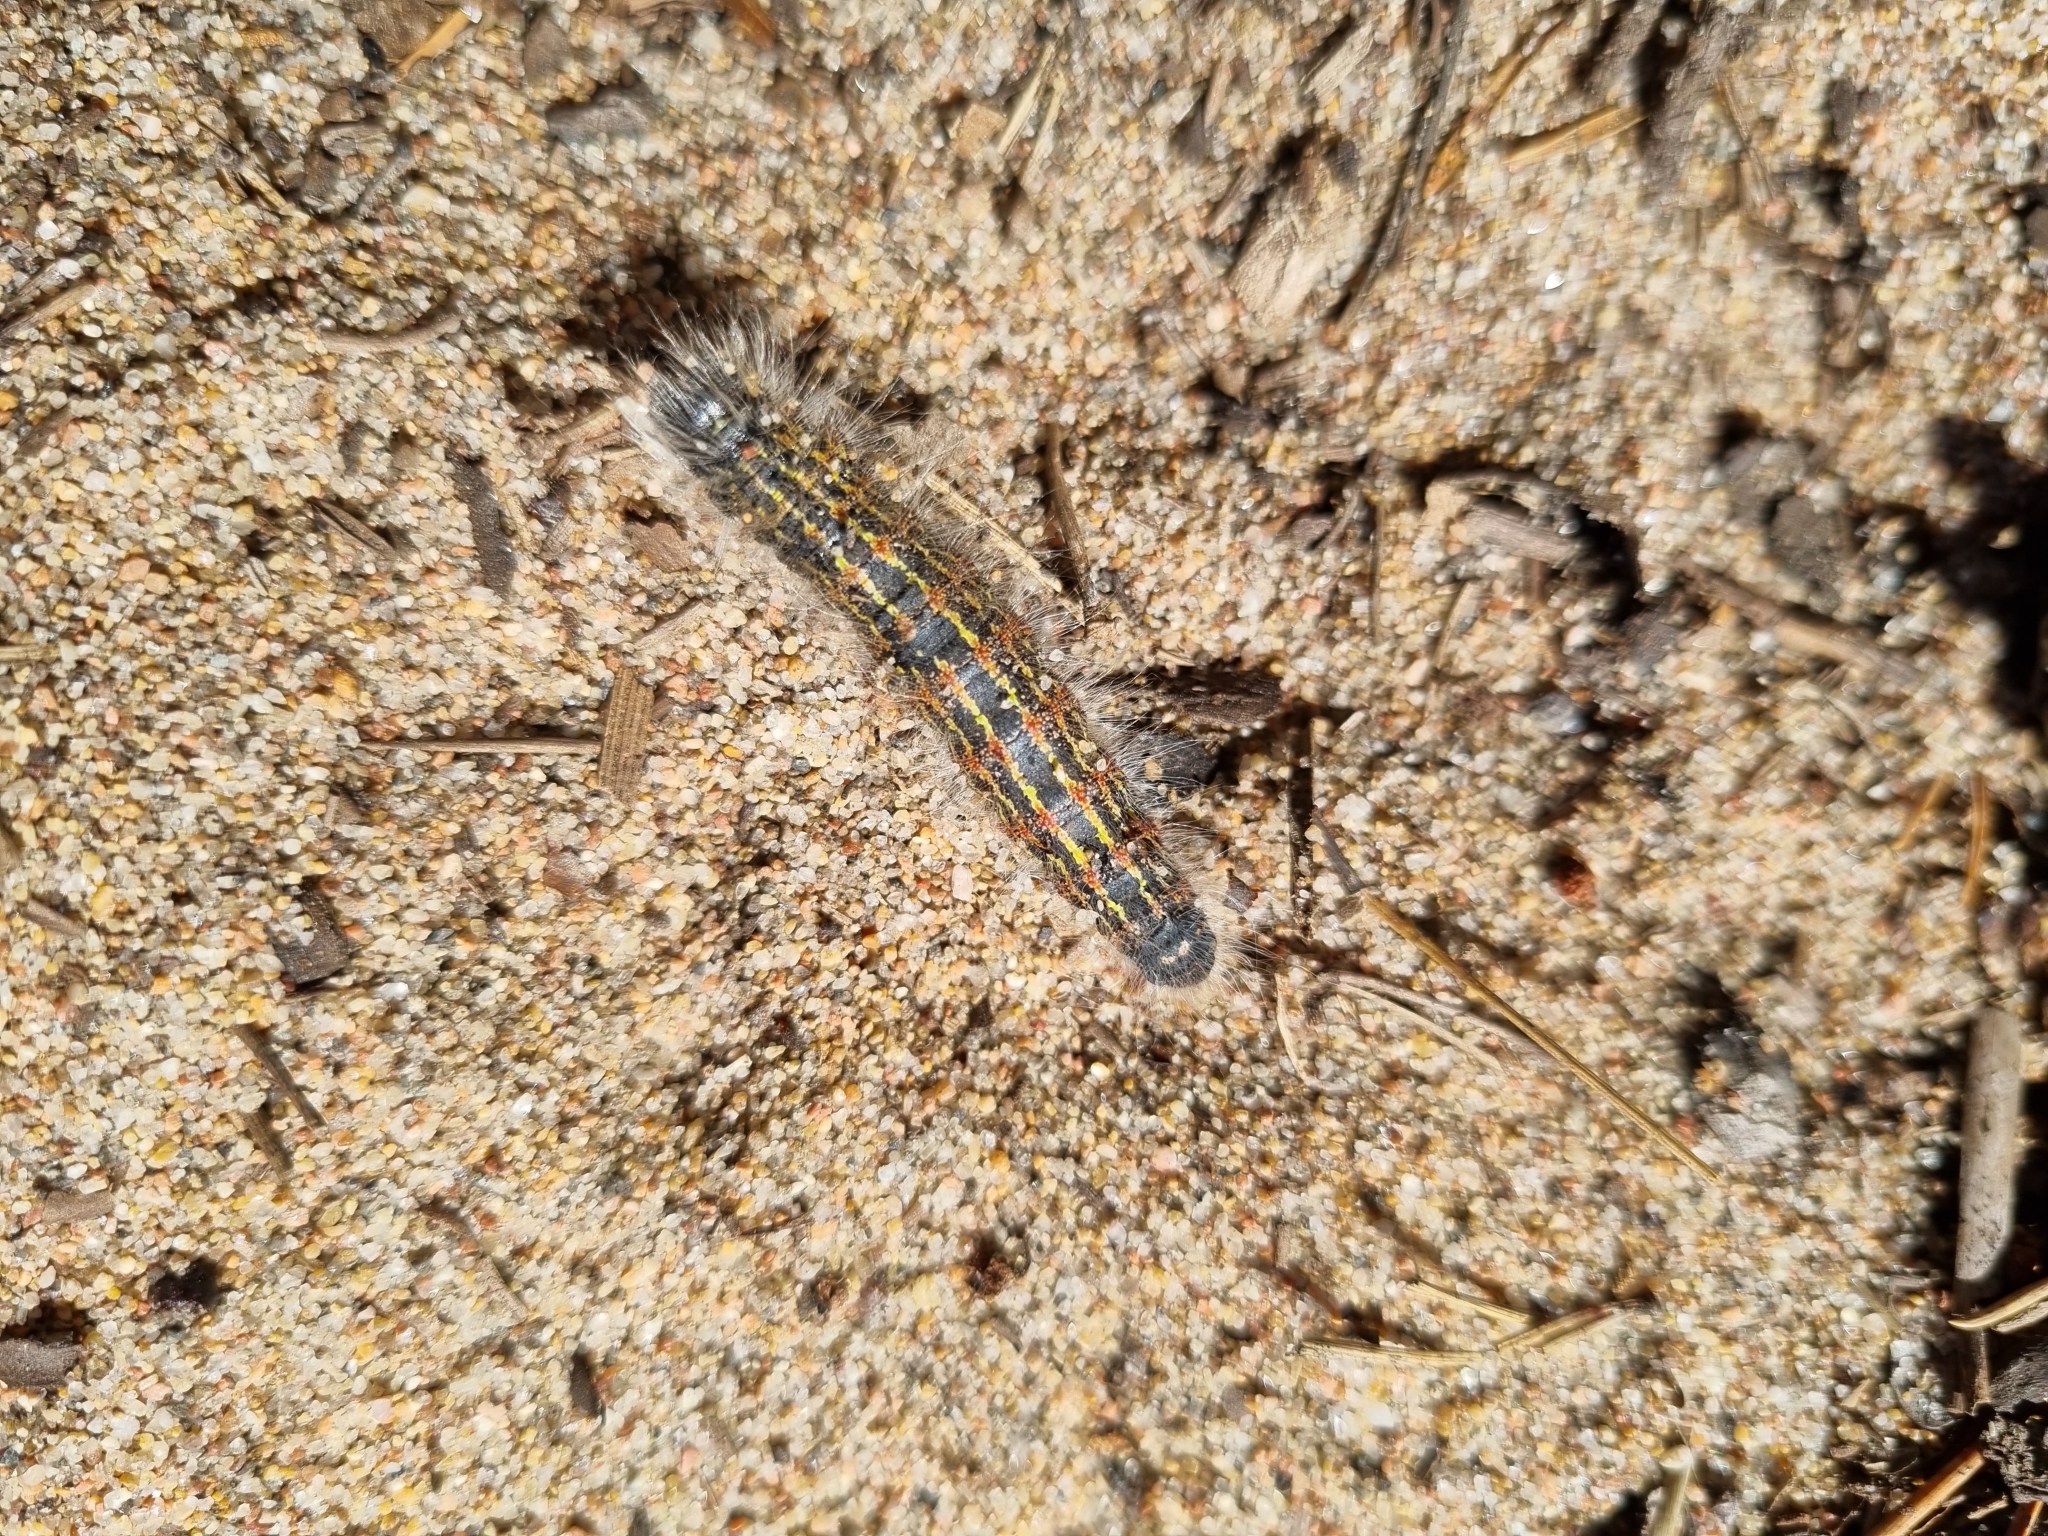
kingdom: Animalia
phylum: Arthropoda
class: Insecta
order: Lepidoptera
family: Notodontidae
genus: Phalera
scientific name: Phalera bucephala
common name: Buff-tip
